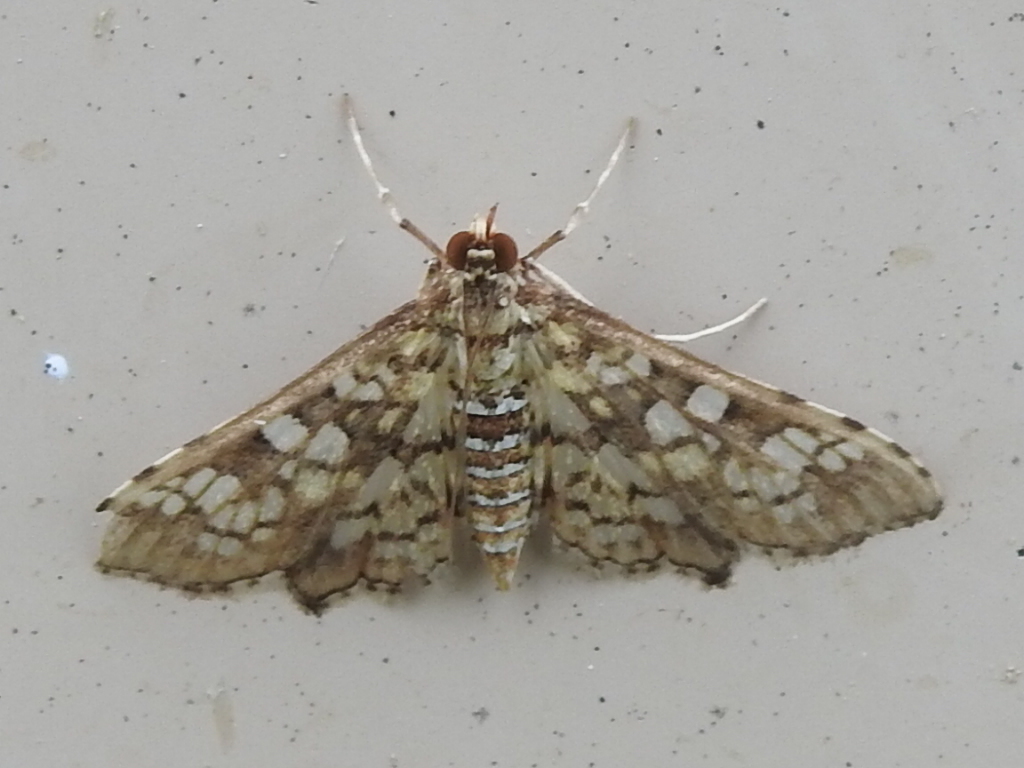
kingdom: Animalia
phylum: Arthropoda
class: Insecta
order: Lepidoptera
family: Crambidae
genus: Samea
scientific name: Samea ecclesialis
